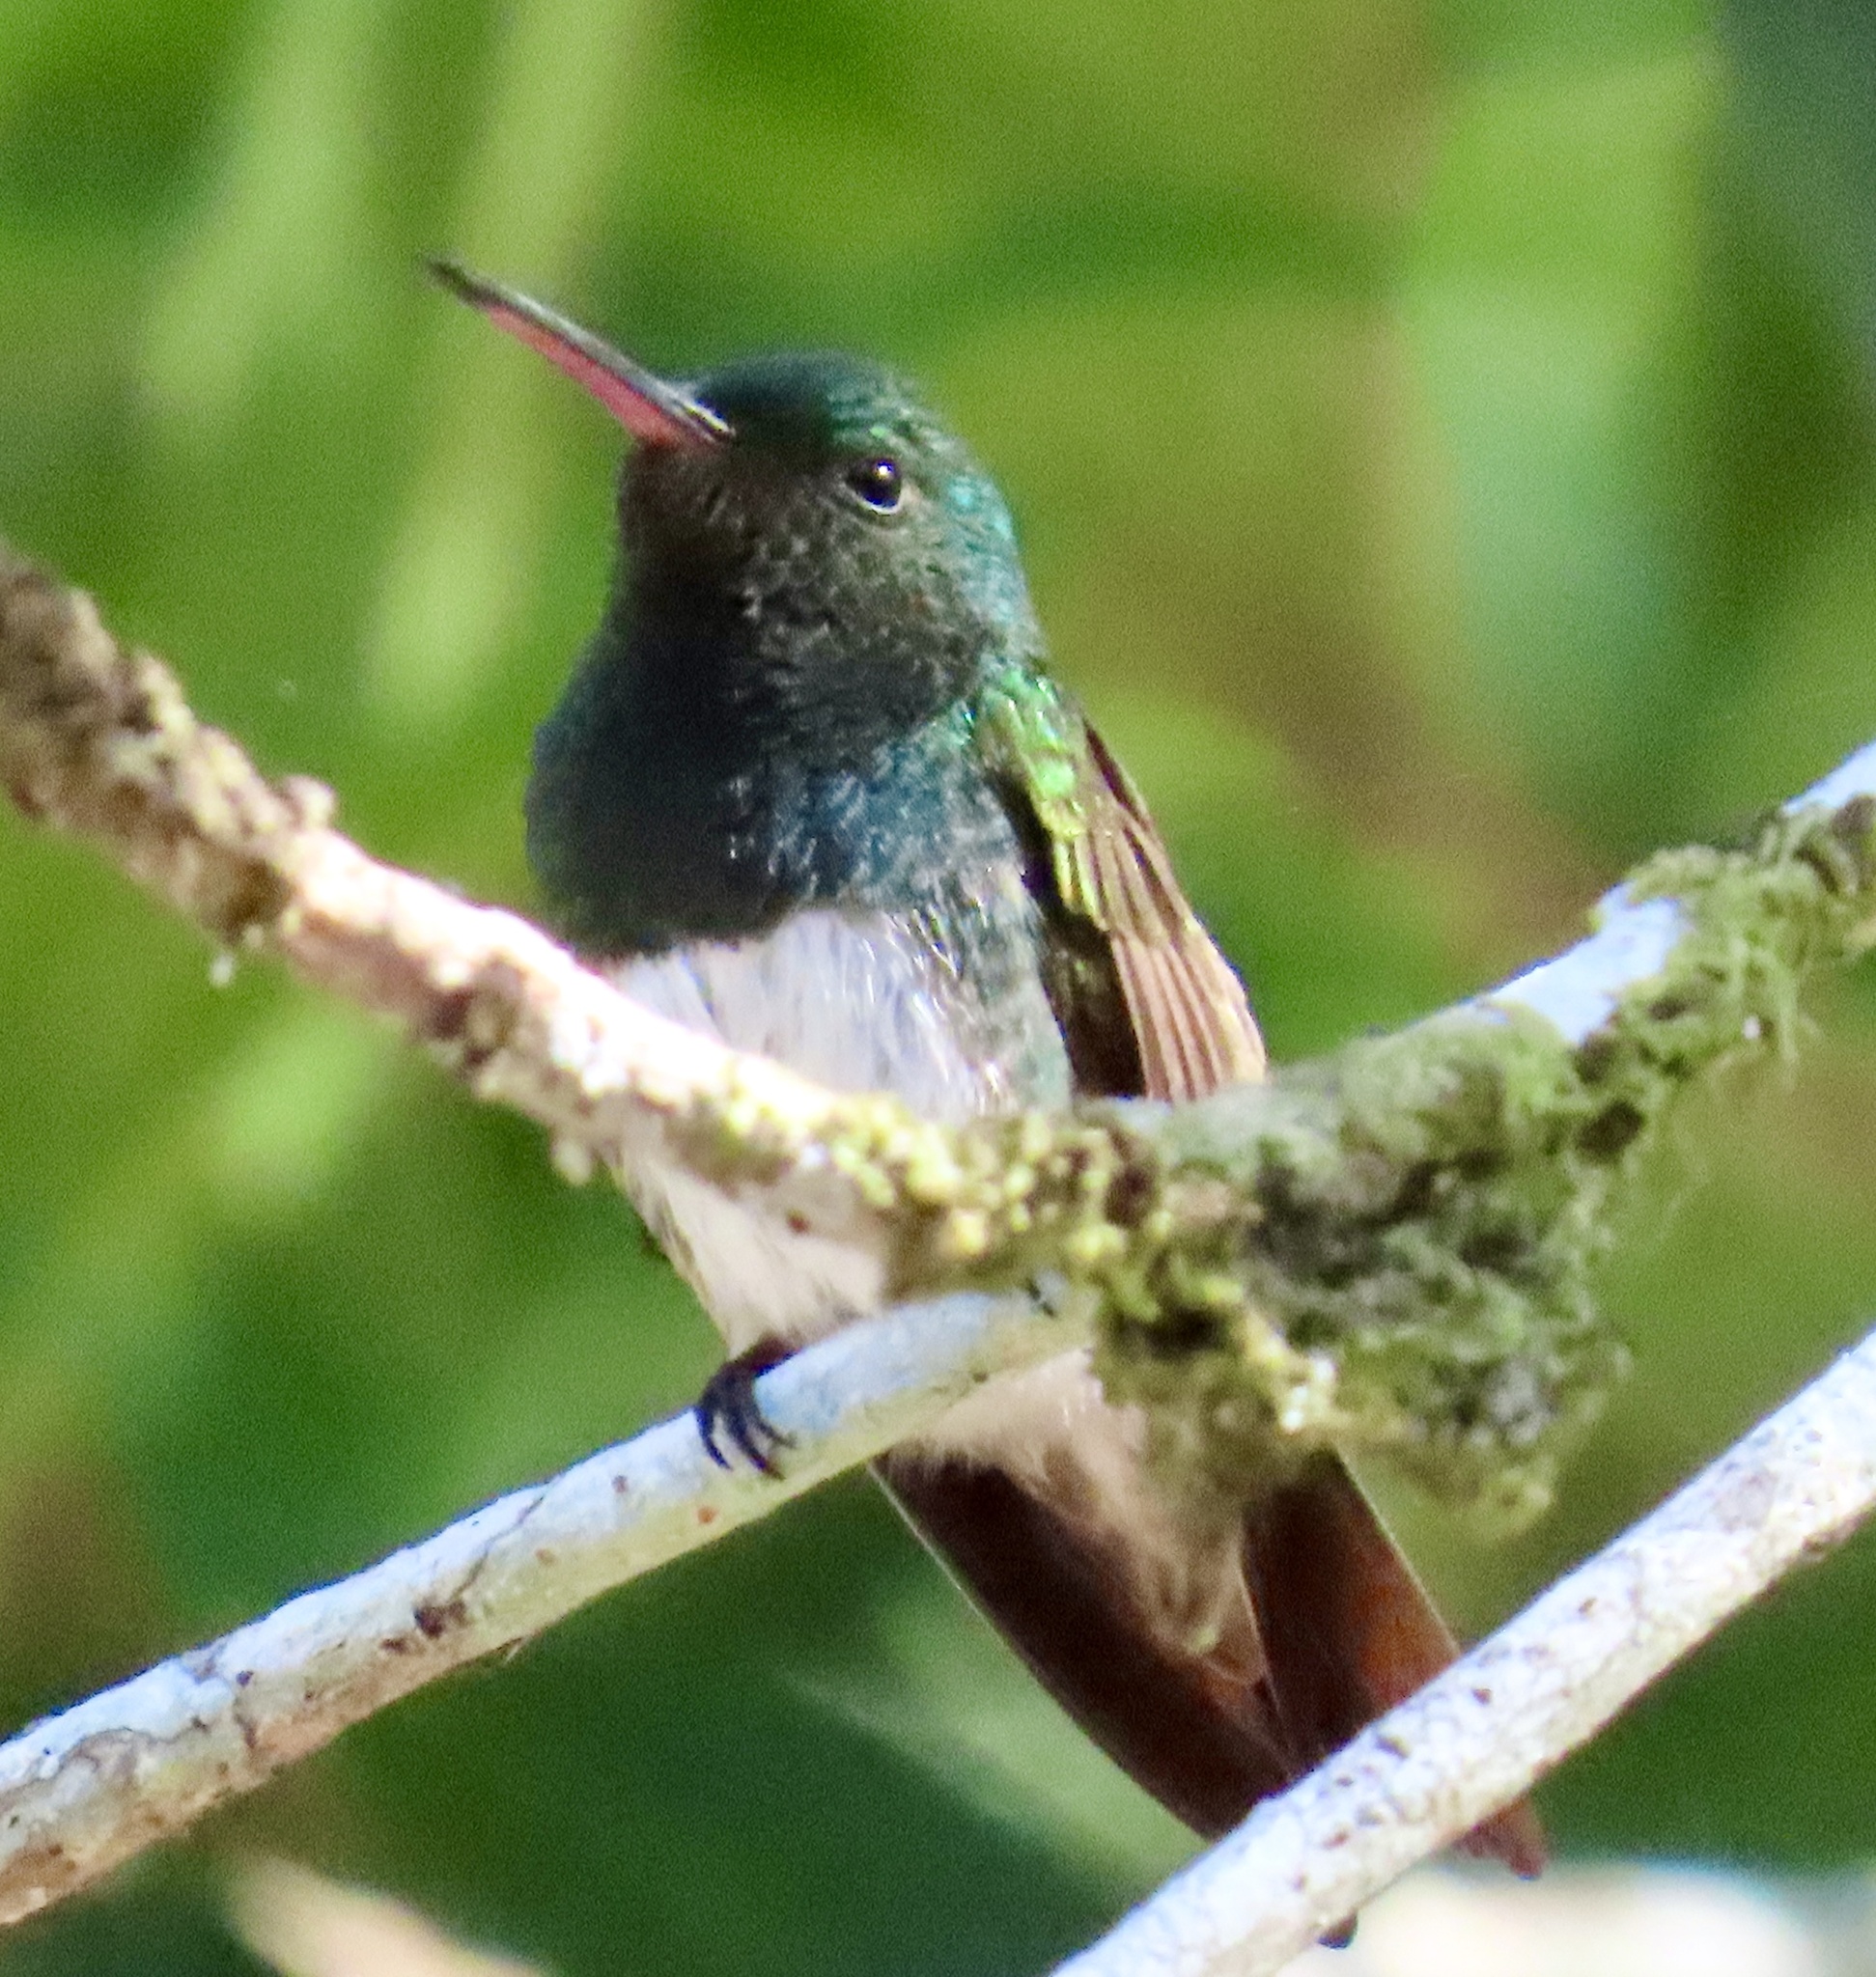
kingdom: Animalia
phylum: Chordata
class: Aves
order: Apodiformes
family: Trochilidae
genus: Saucerottia
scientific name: Saucerottia edward
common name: Snowy-bellied hummingbird
